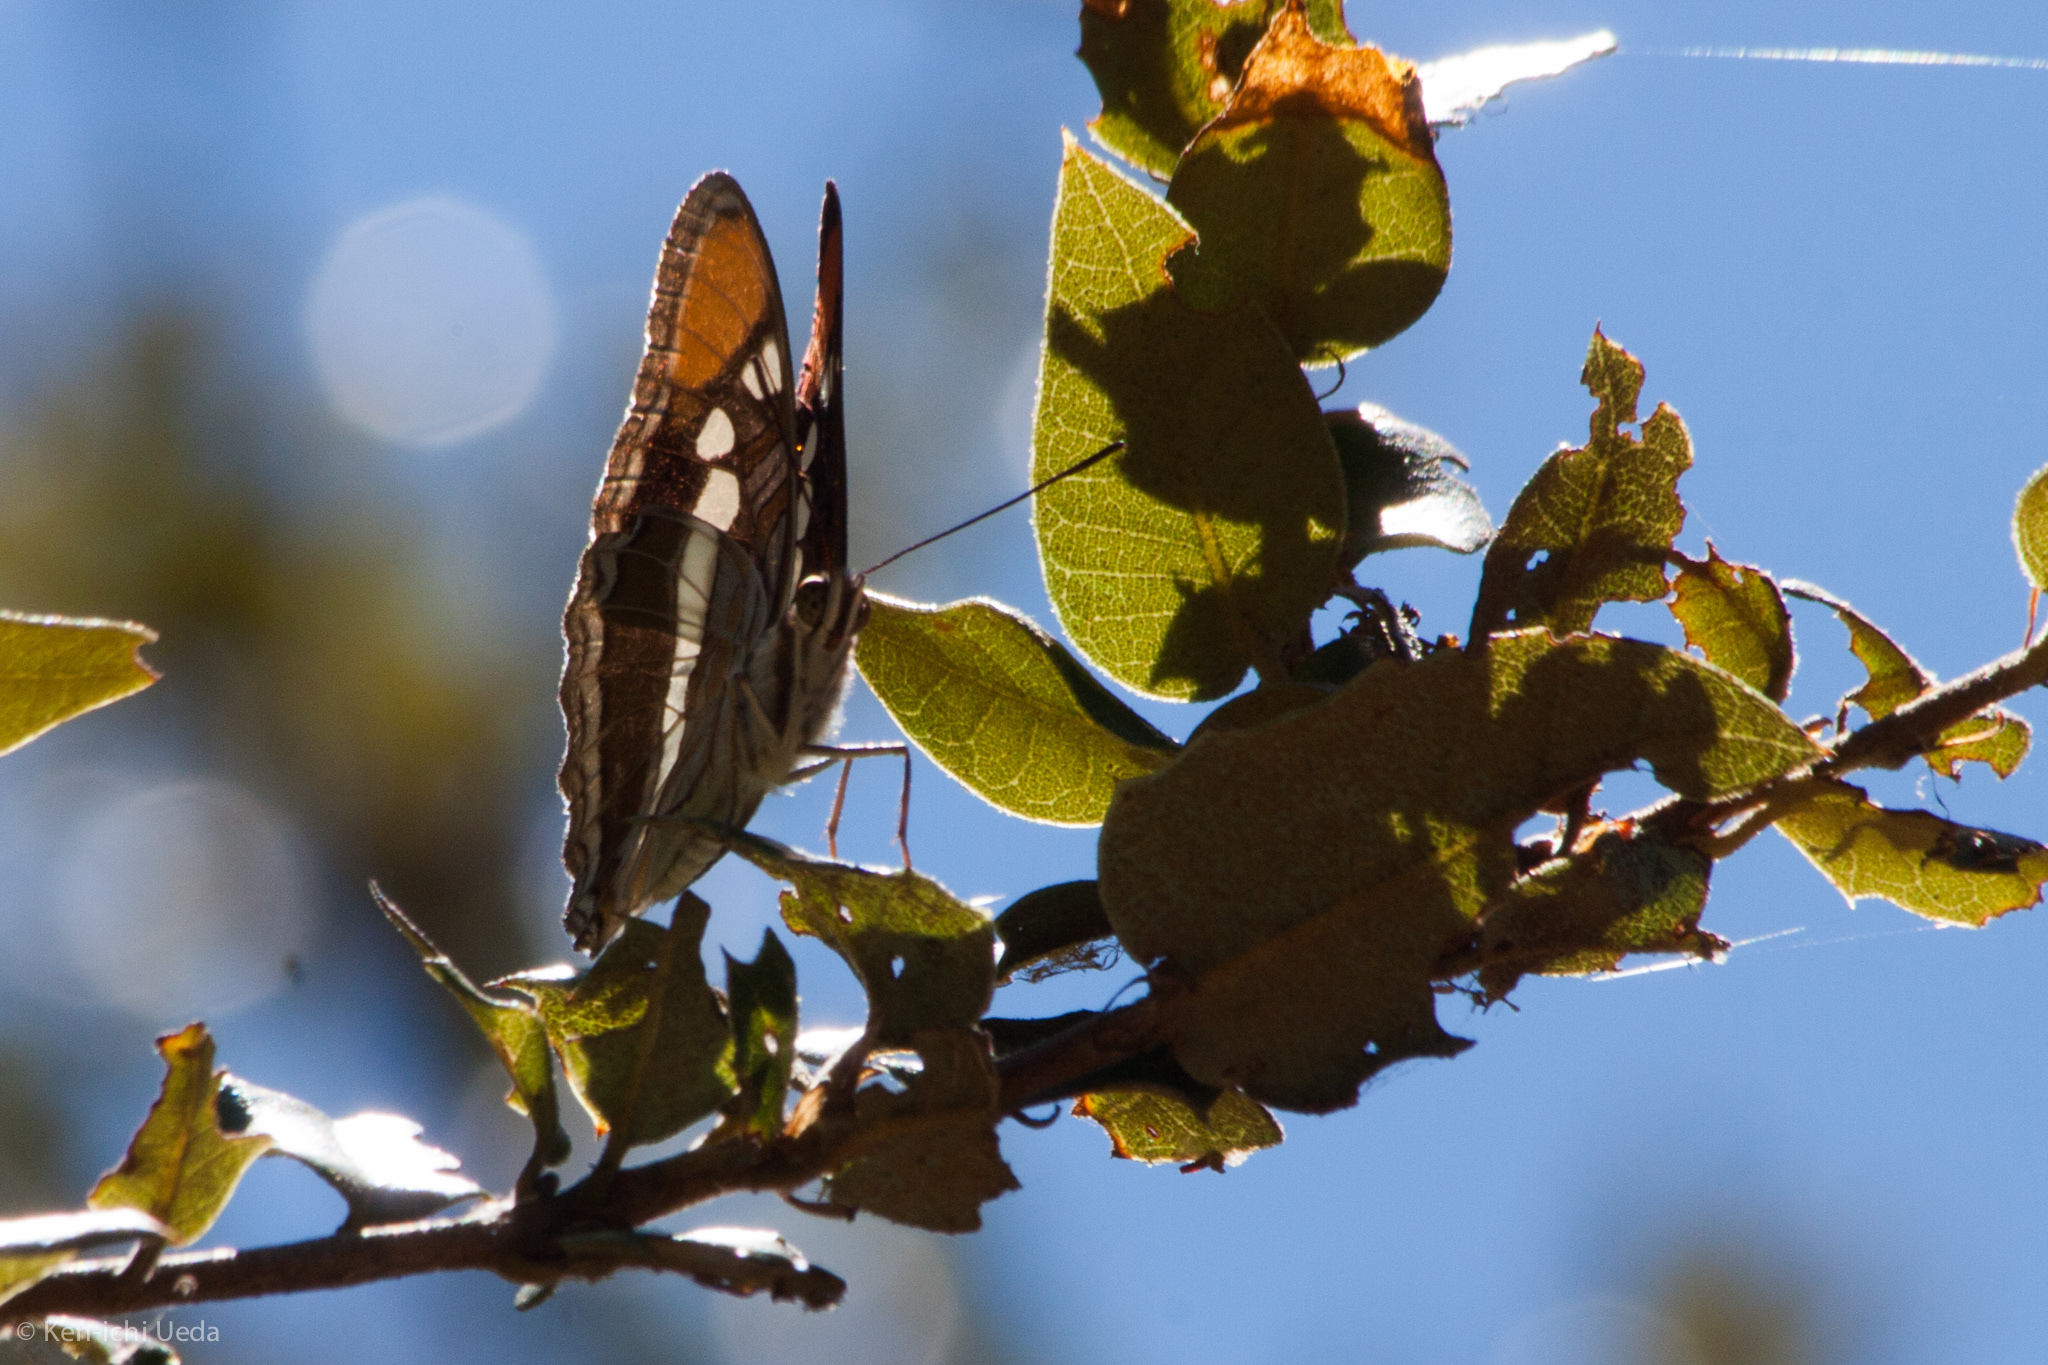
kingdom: Animalia
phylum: Arthropoda
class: Insecta
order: Lepidoptera
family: Nymphalidae
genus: Limenitis
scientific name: Limenitis bredowii
